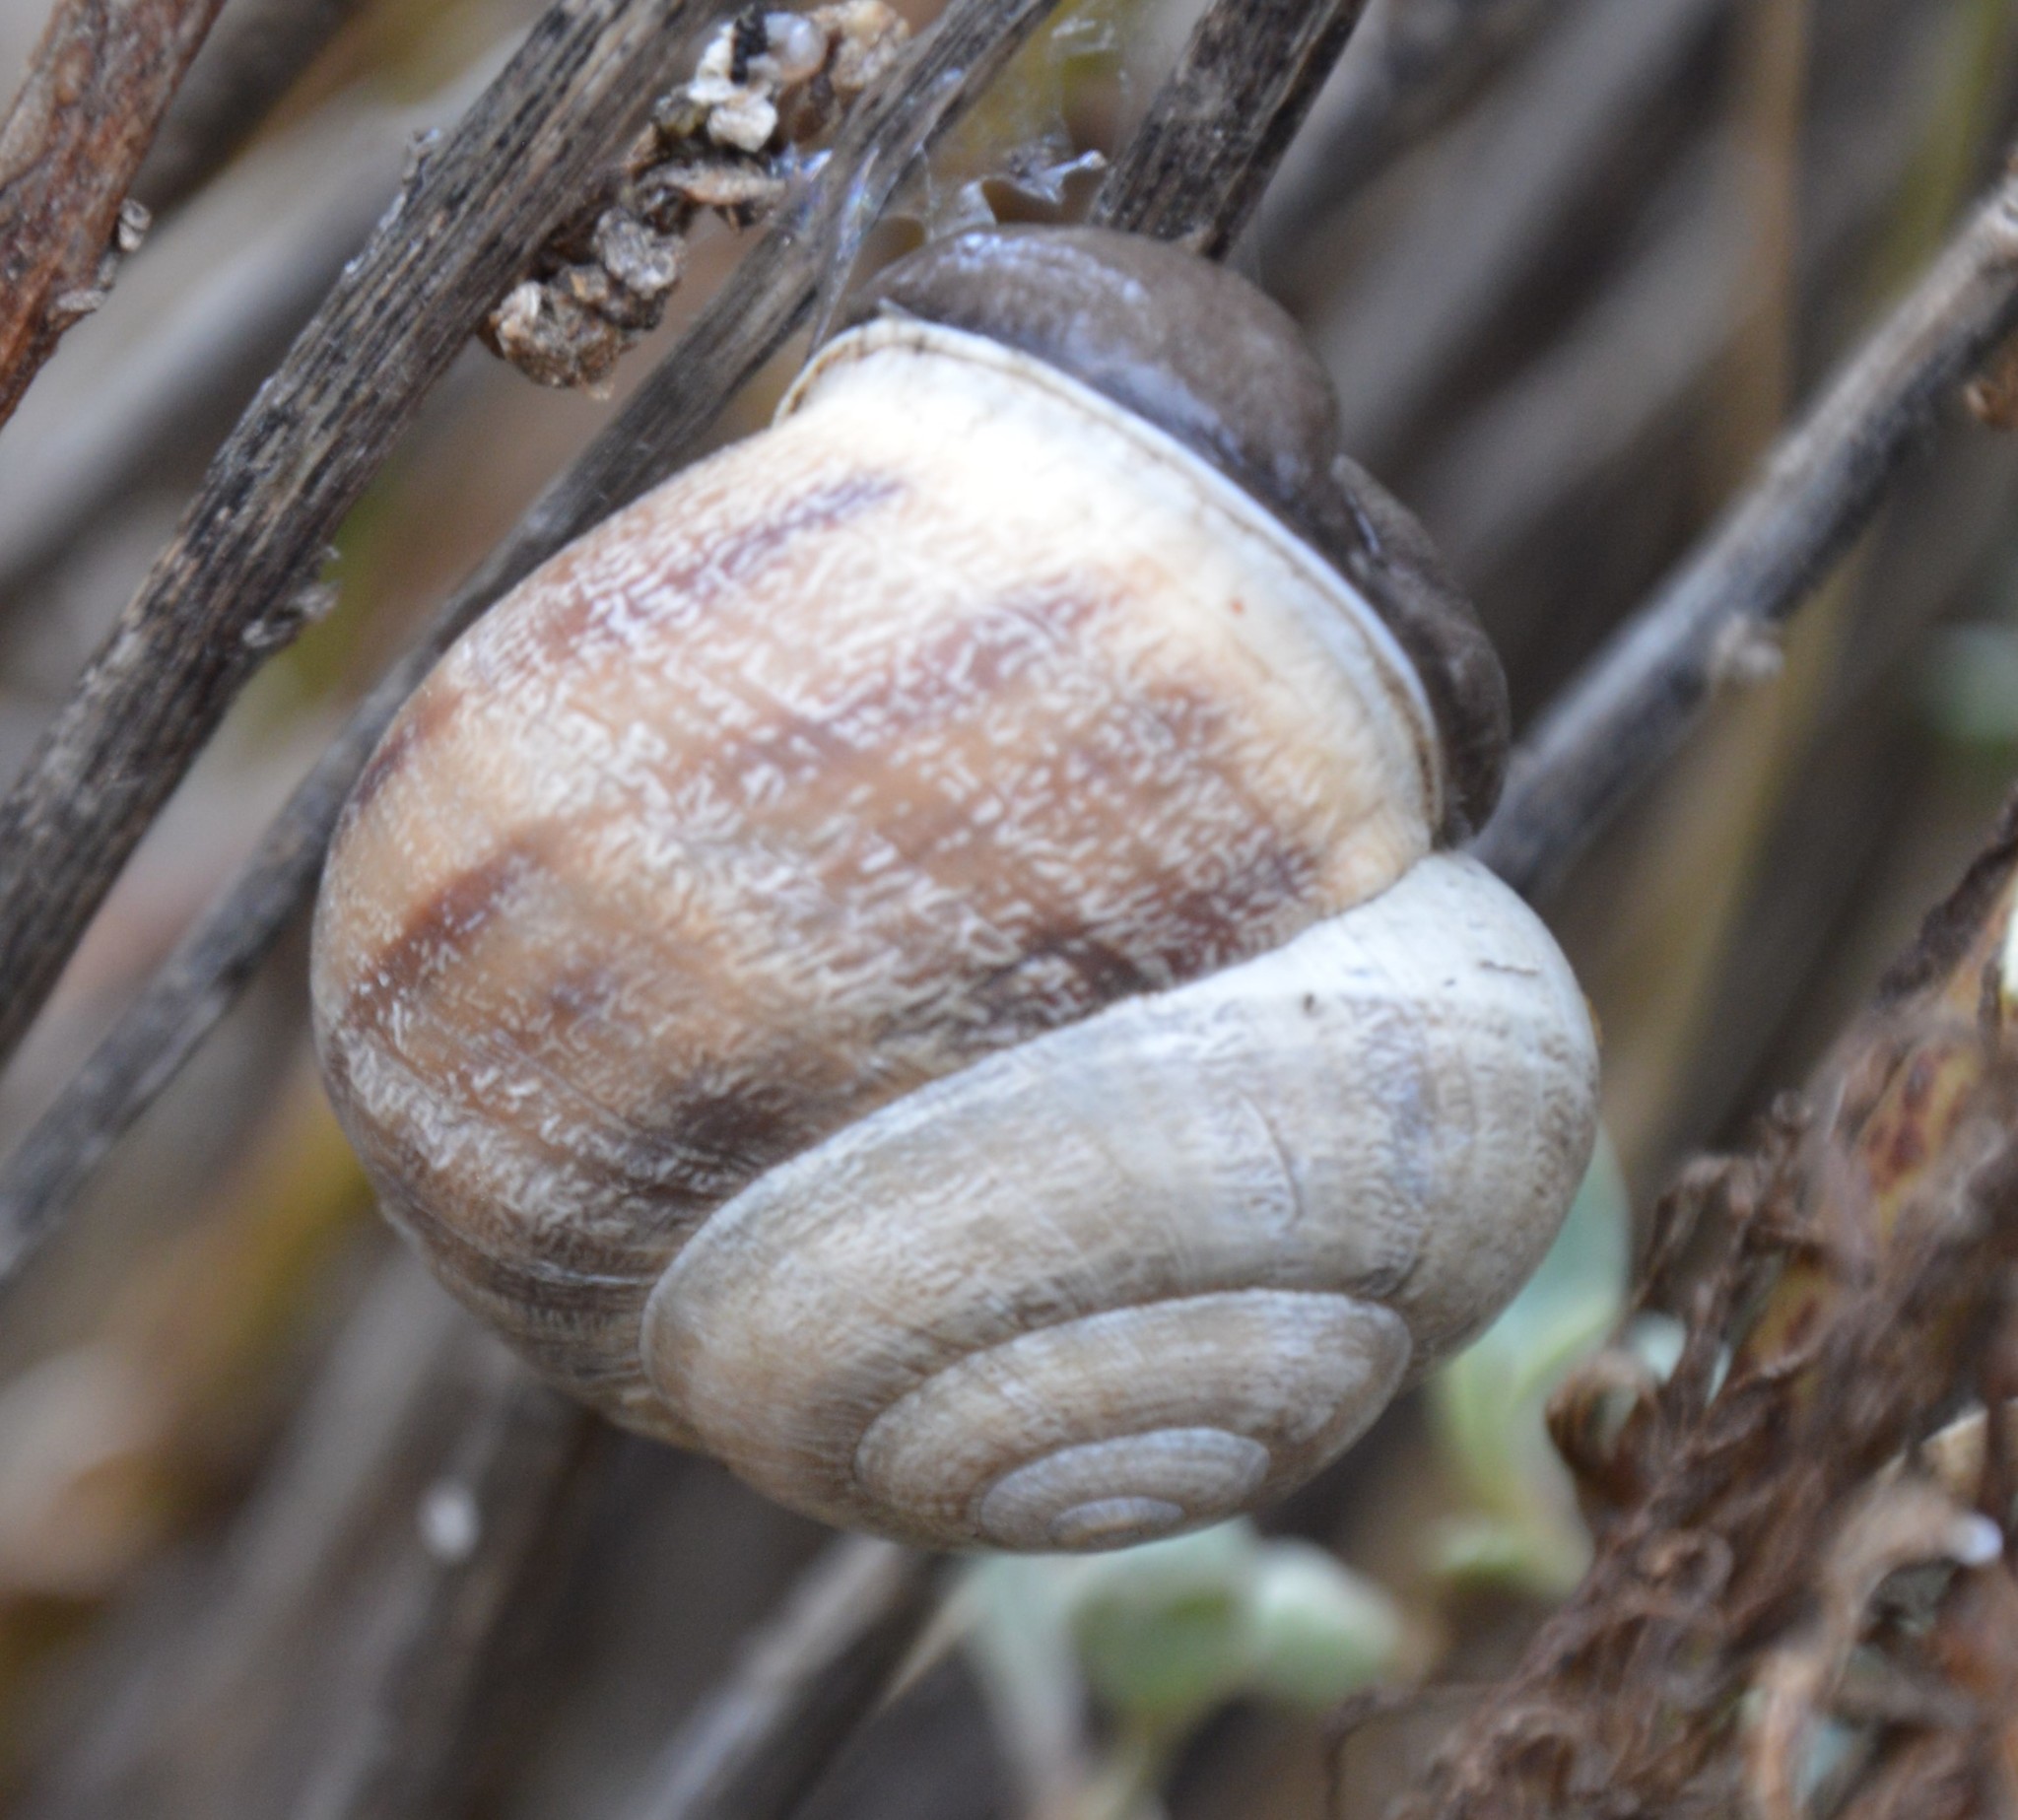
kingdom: Animalia
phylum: Mollusca
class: Gastropoda
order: Stylommatophora
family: Helicidae
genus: Eobania
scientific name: Eobania vermiculata
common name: Chocolateband snail
